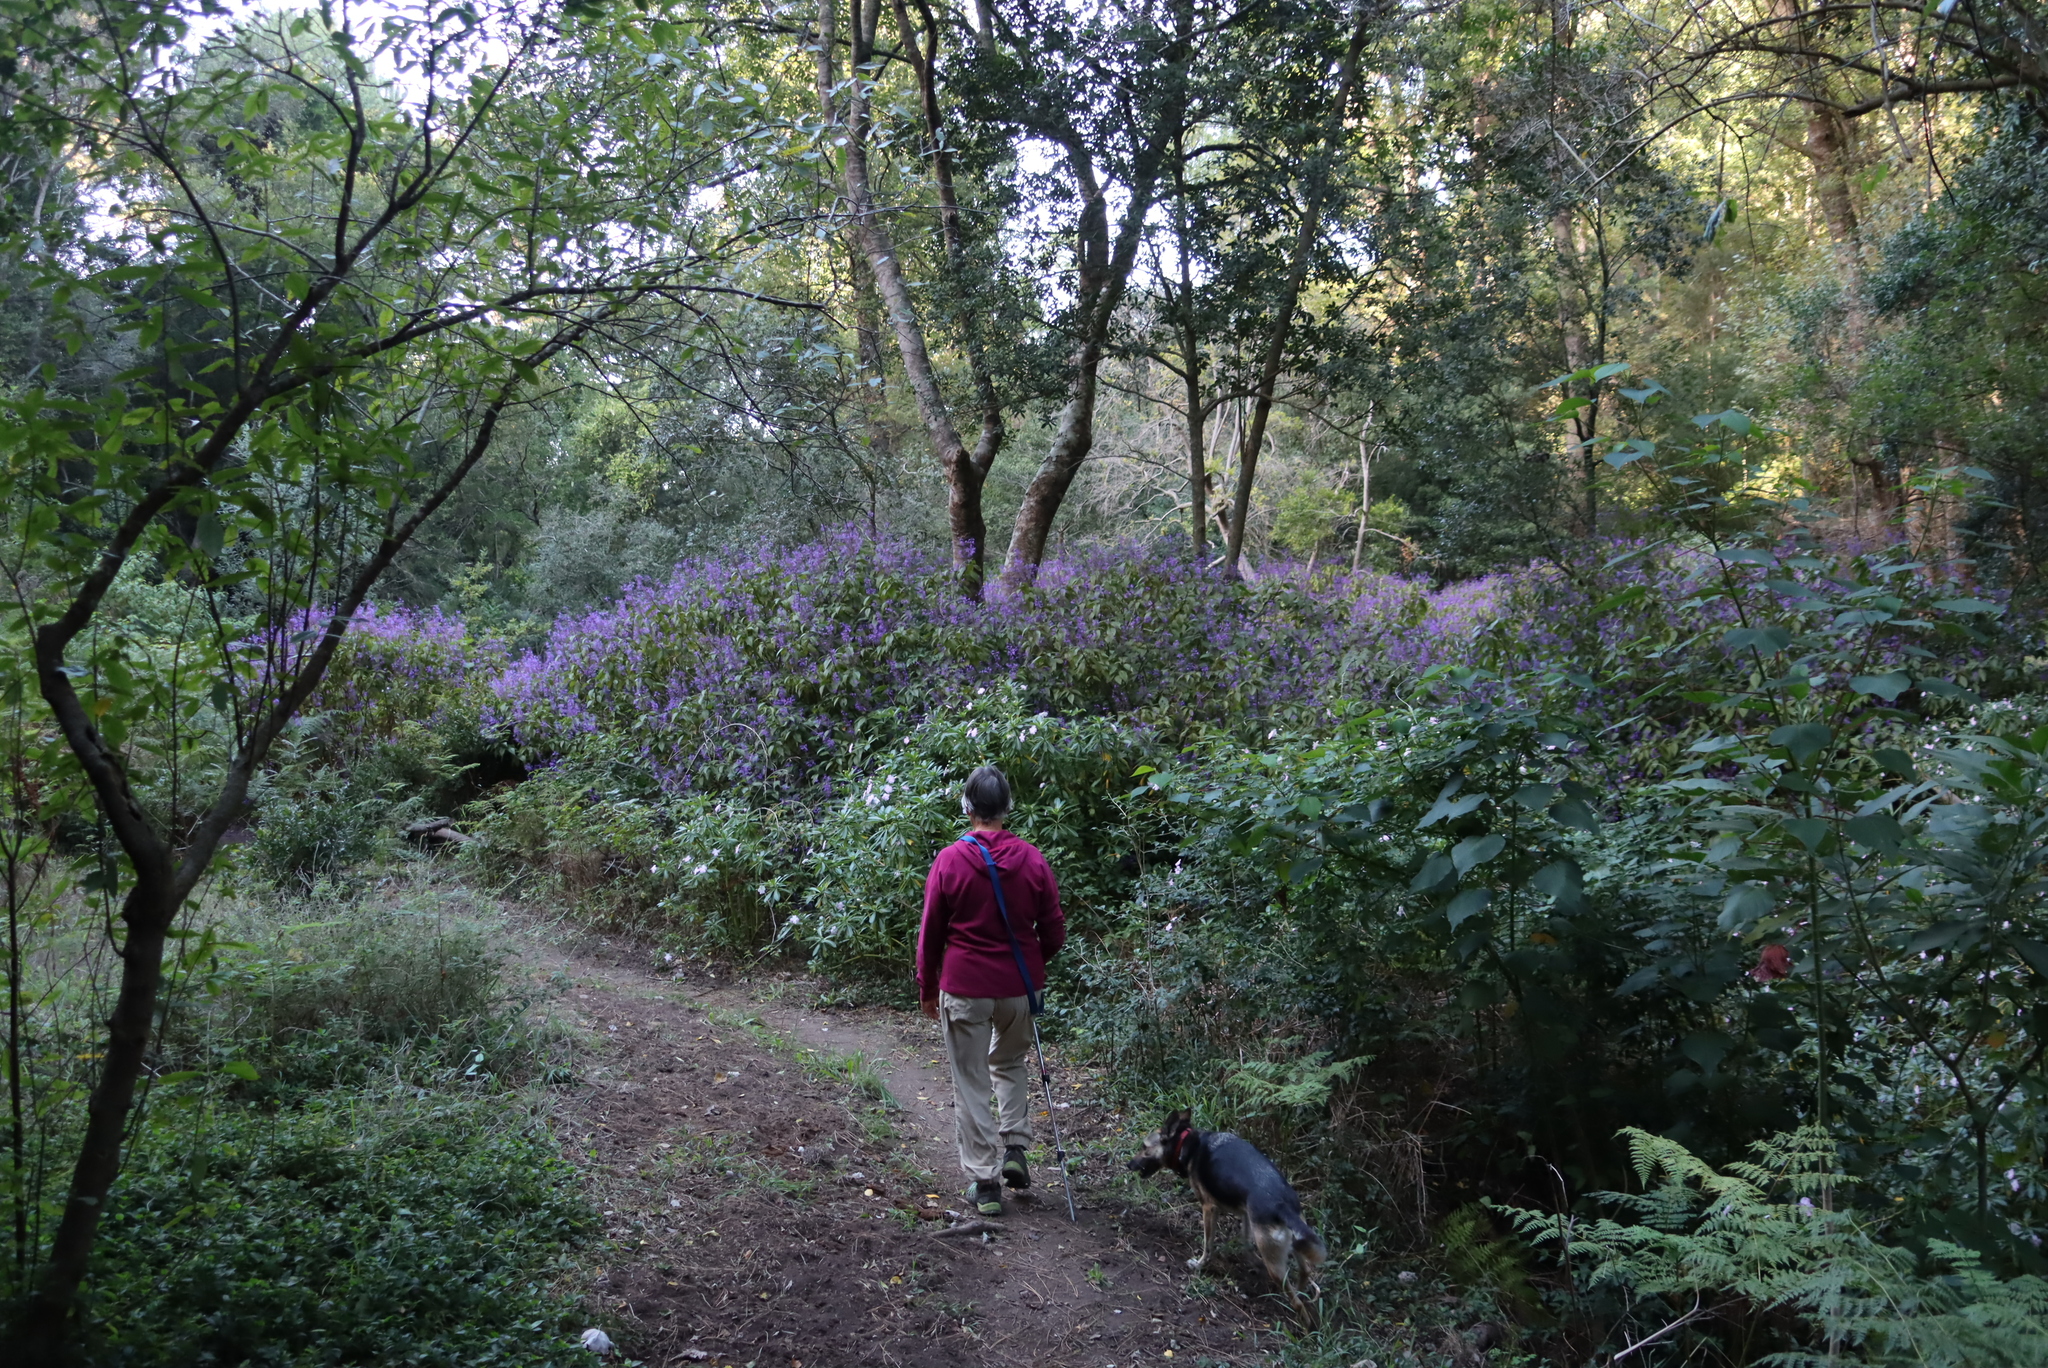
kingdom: Plantae
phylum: Tracheophyta
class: Magnoliopsida
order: Ericales
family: Balsaminaceae
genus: Impatiens
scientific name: Impatiens sodenii
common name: Oliver's touch-me-not
